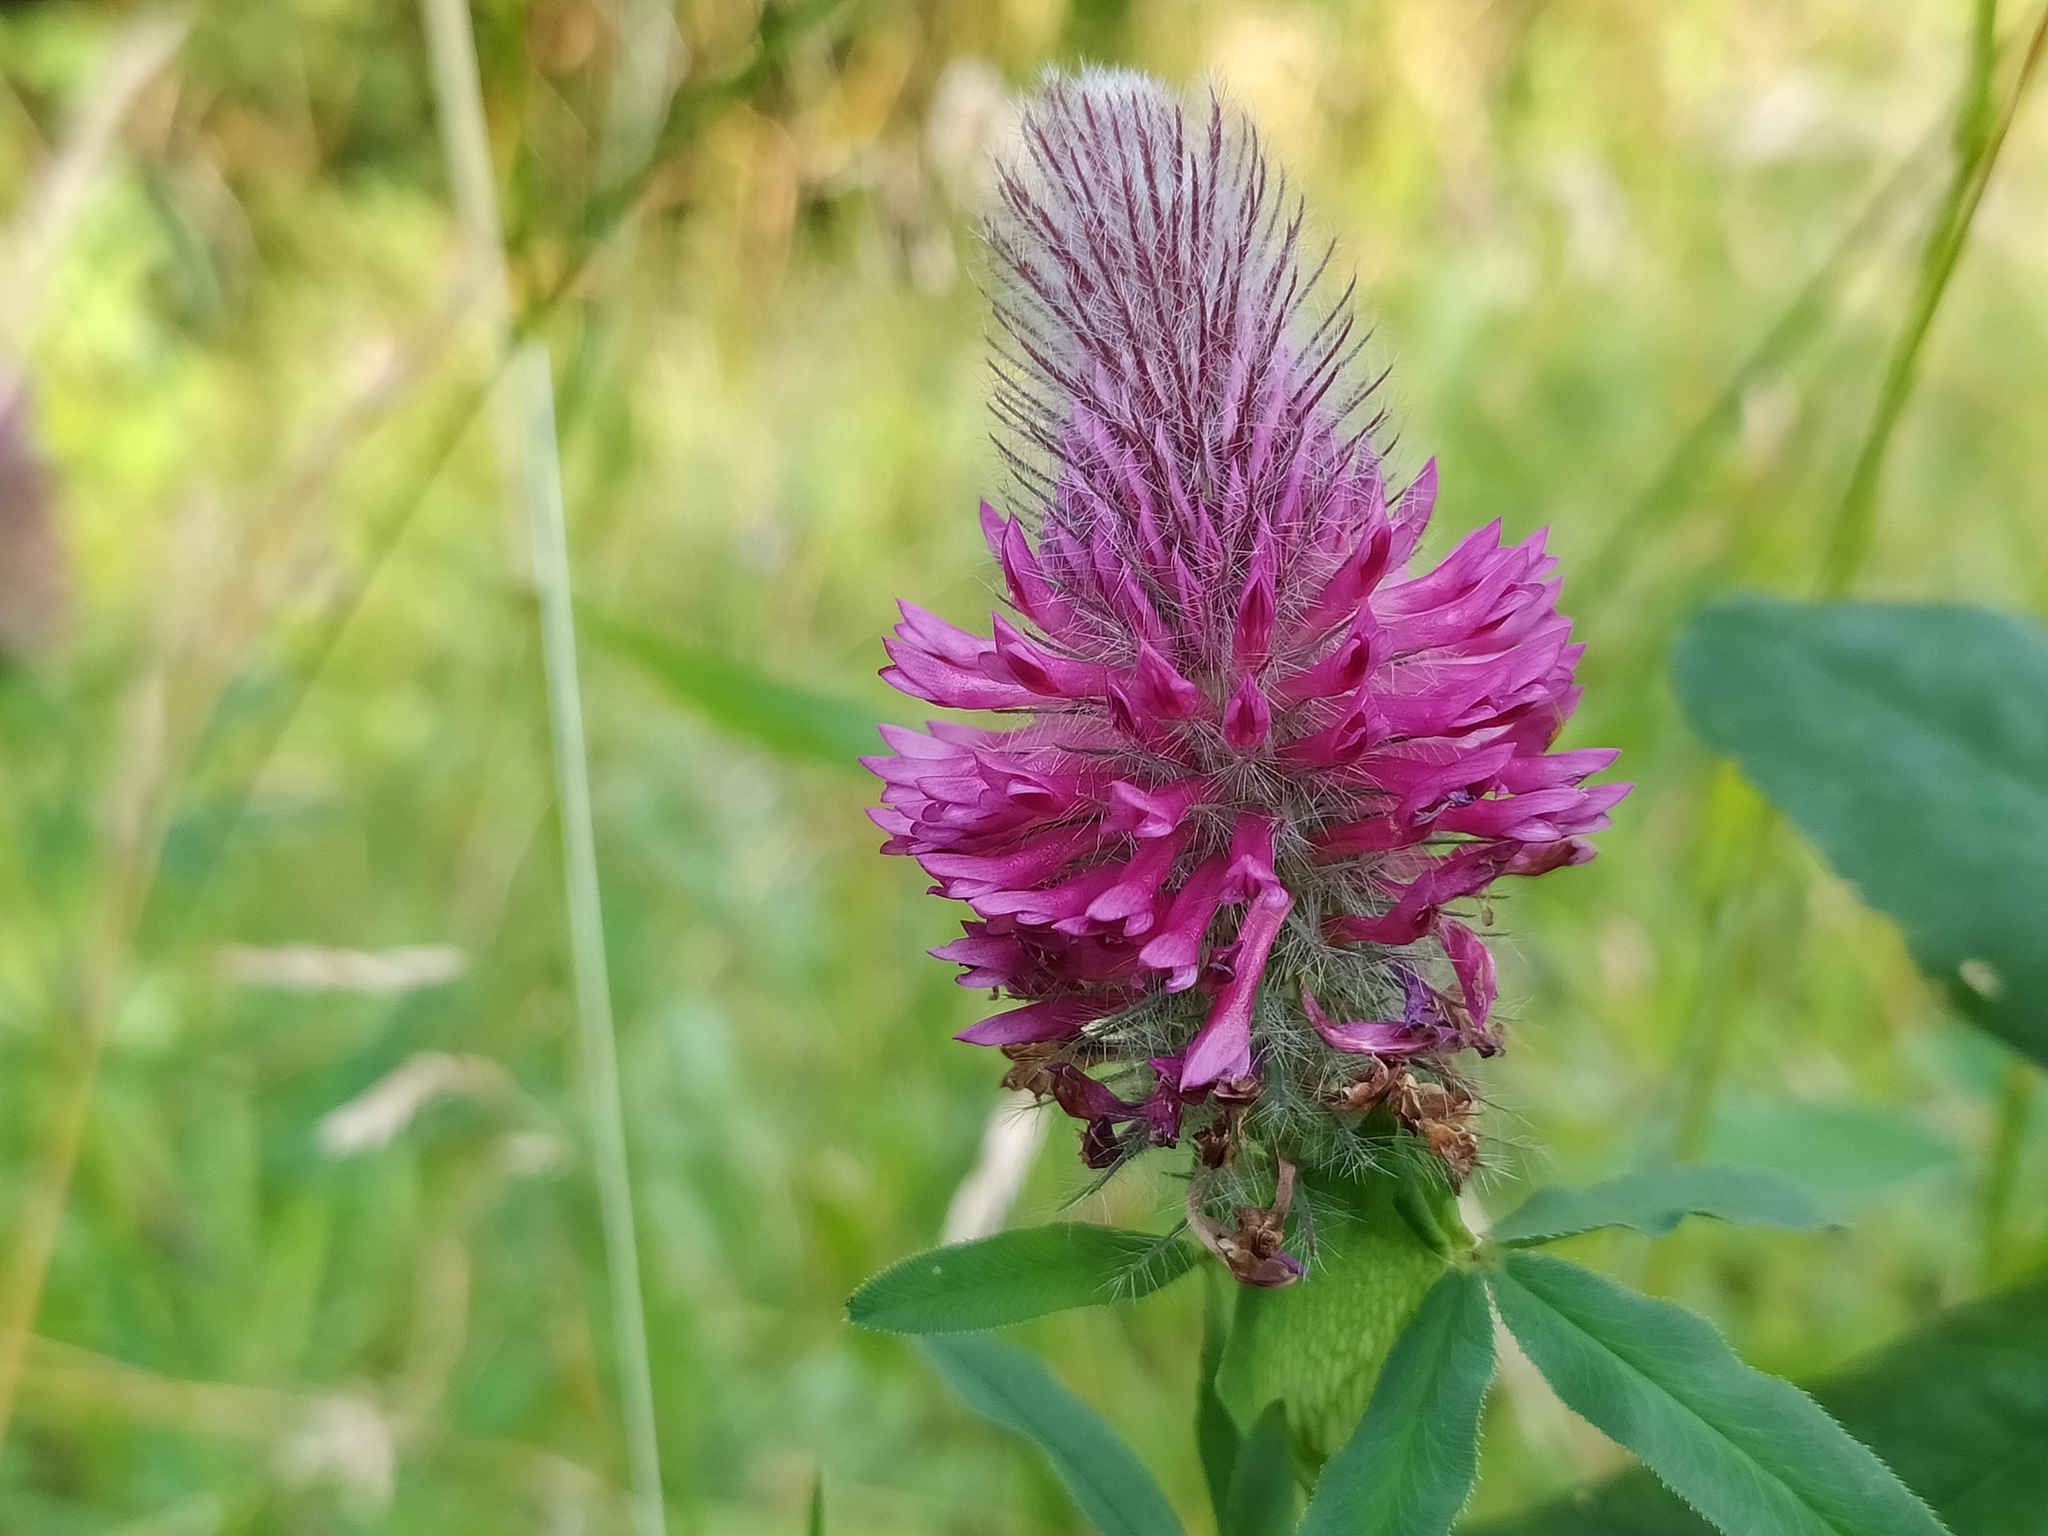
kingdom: Plantae
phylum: Tracheophyta
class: Magnoliopsida
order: Fabales
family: Fabaceae
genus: Trifolium
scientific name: Trifolium rubens
